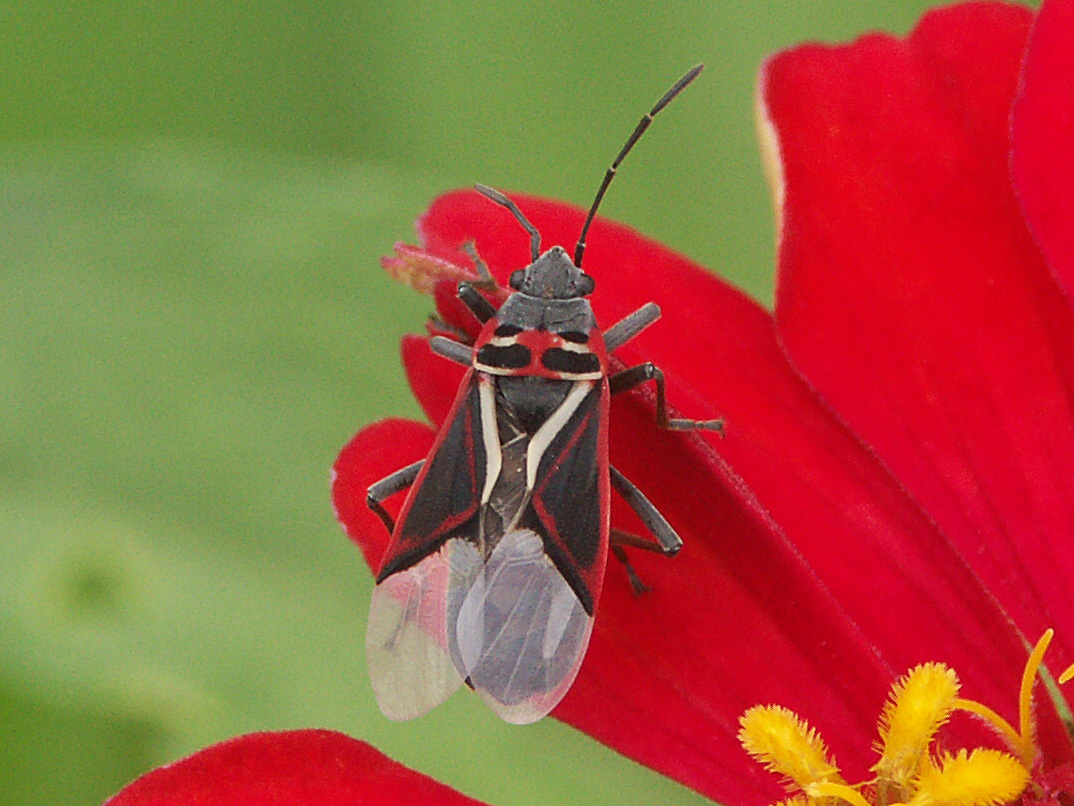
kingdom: Animalia
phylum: Arthropoda
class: Insecta
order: Hemiptera
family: Lygaeidae
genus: Anochrostomus
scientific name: Anochrostomus formosus
